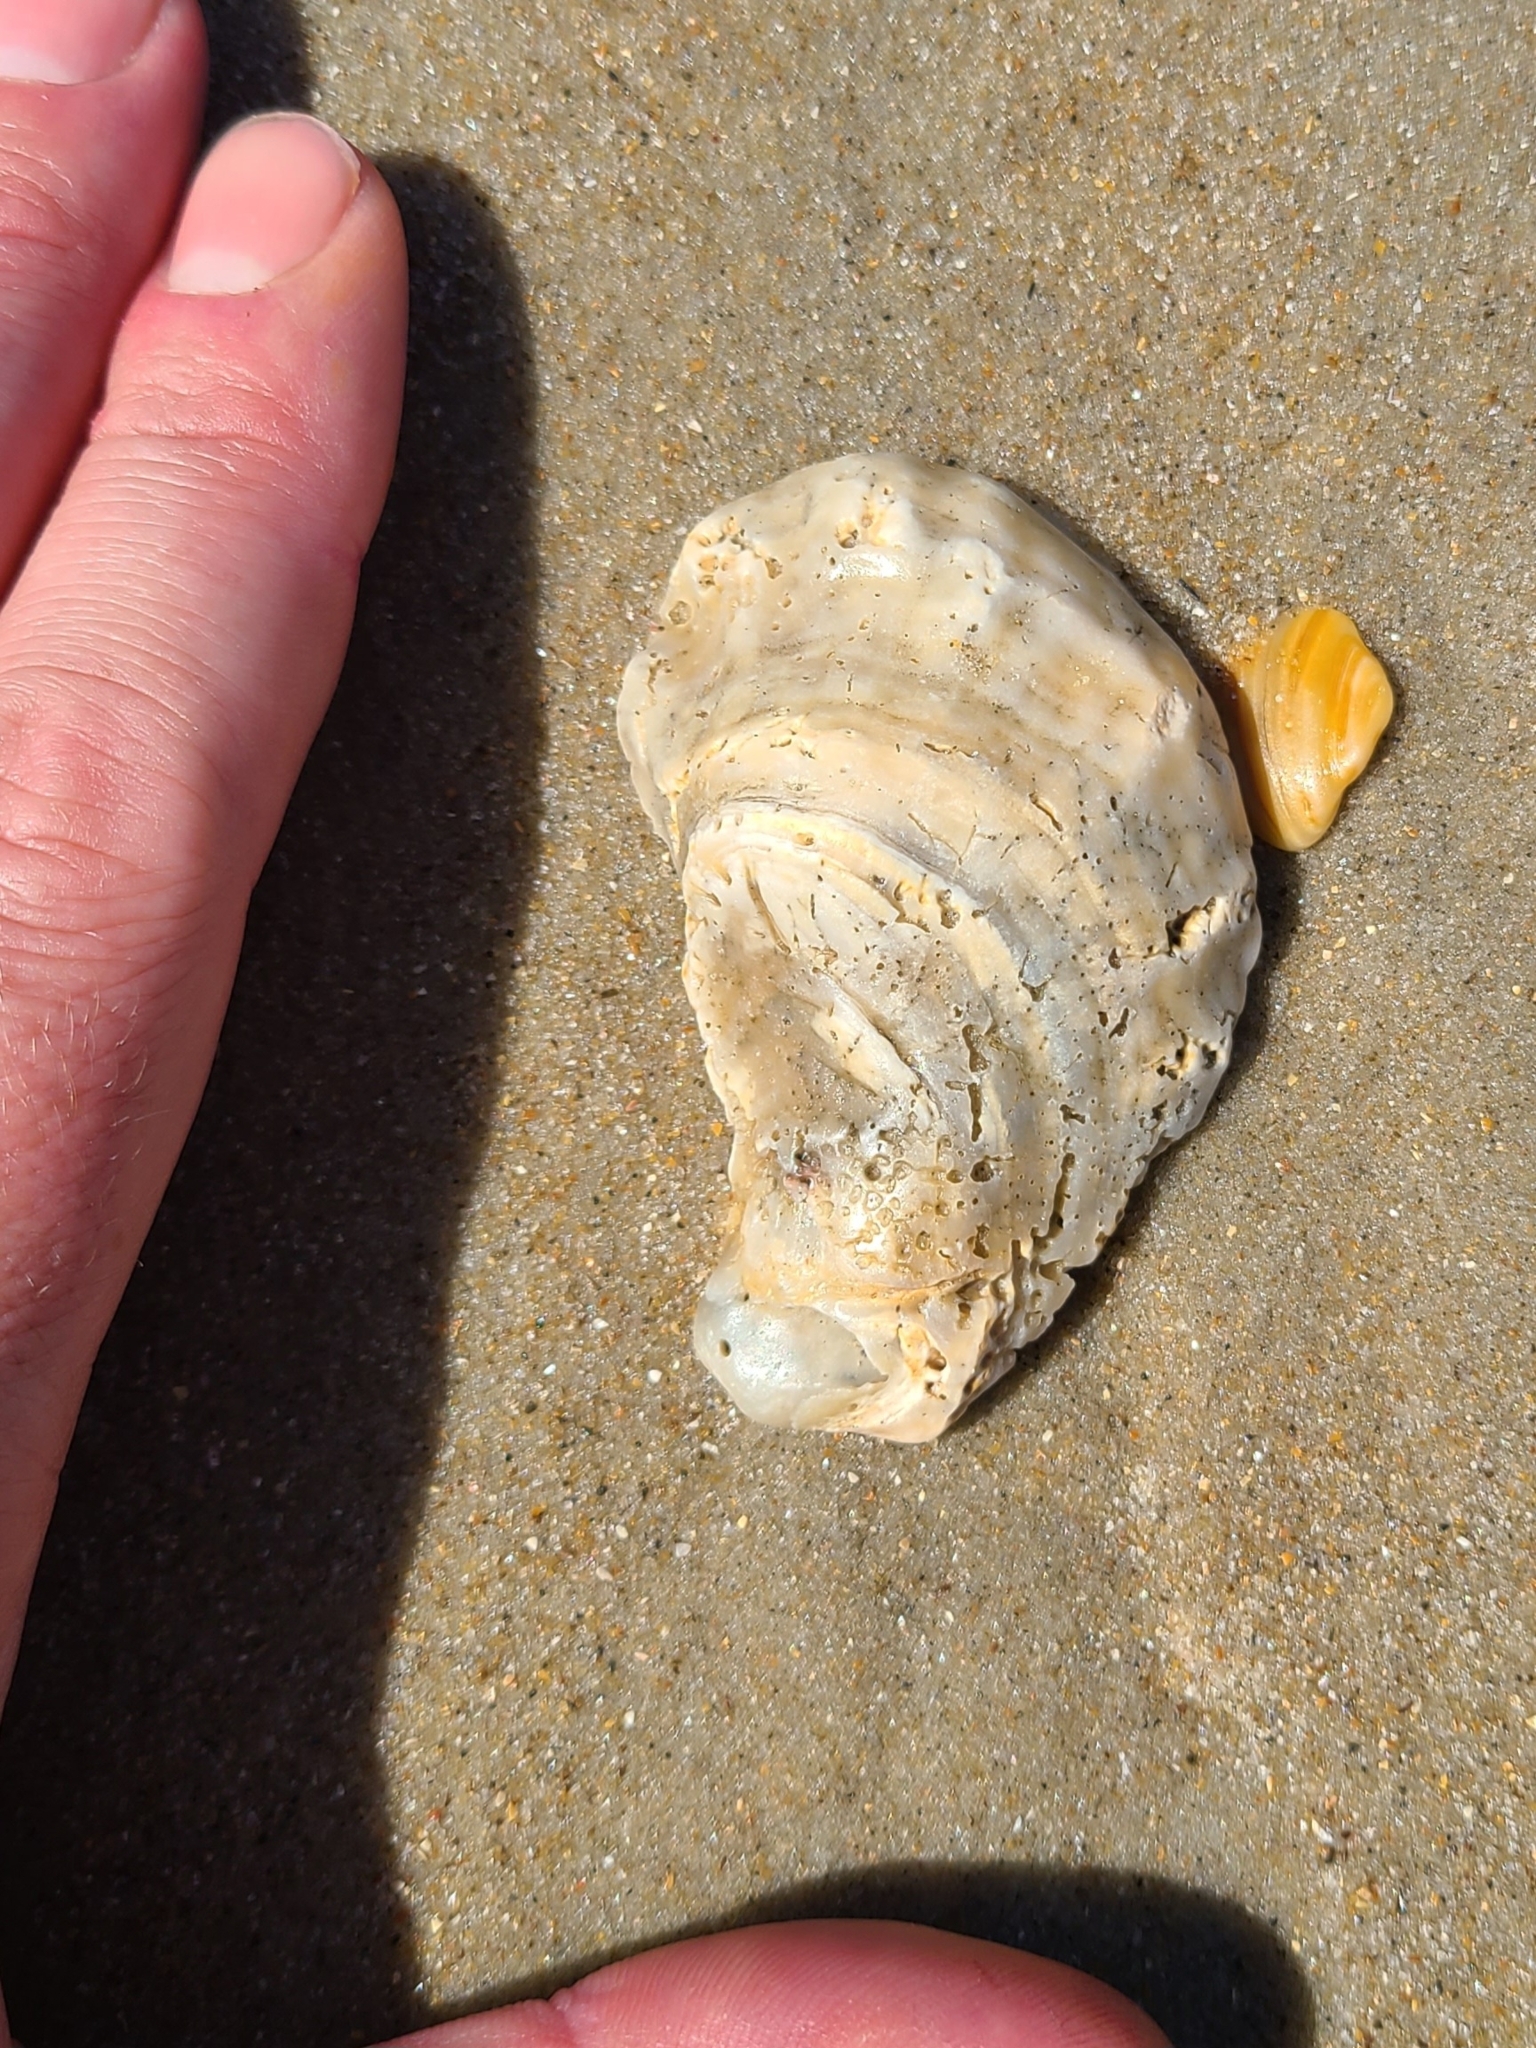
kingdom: Animalia
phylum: Mollusca
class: Bivalvia
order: Ostreida
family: Ostreidae
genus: Crassostrea
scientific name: Crassostrea virginica
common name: American oyster
